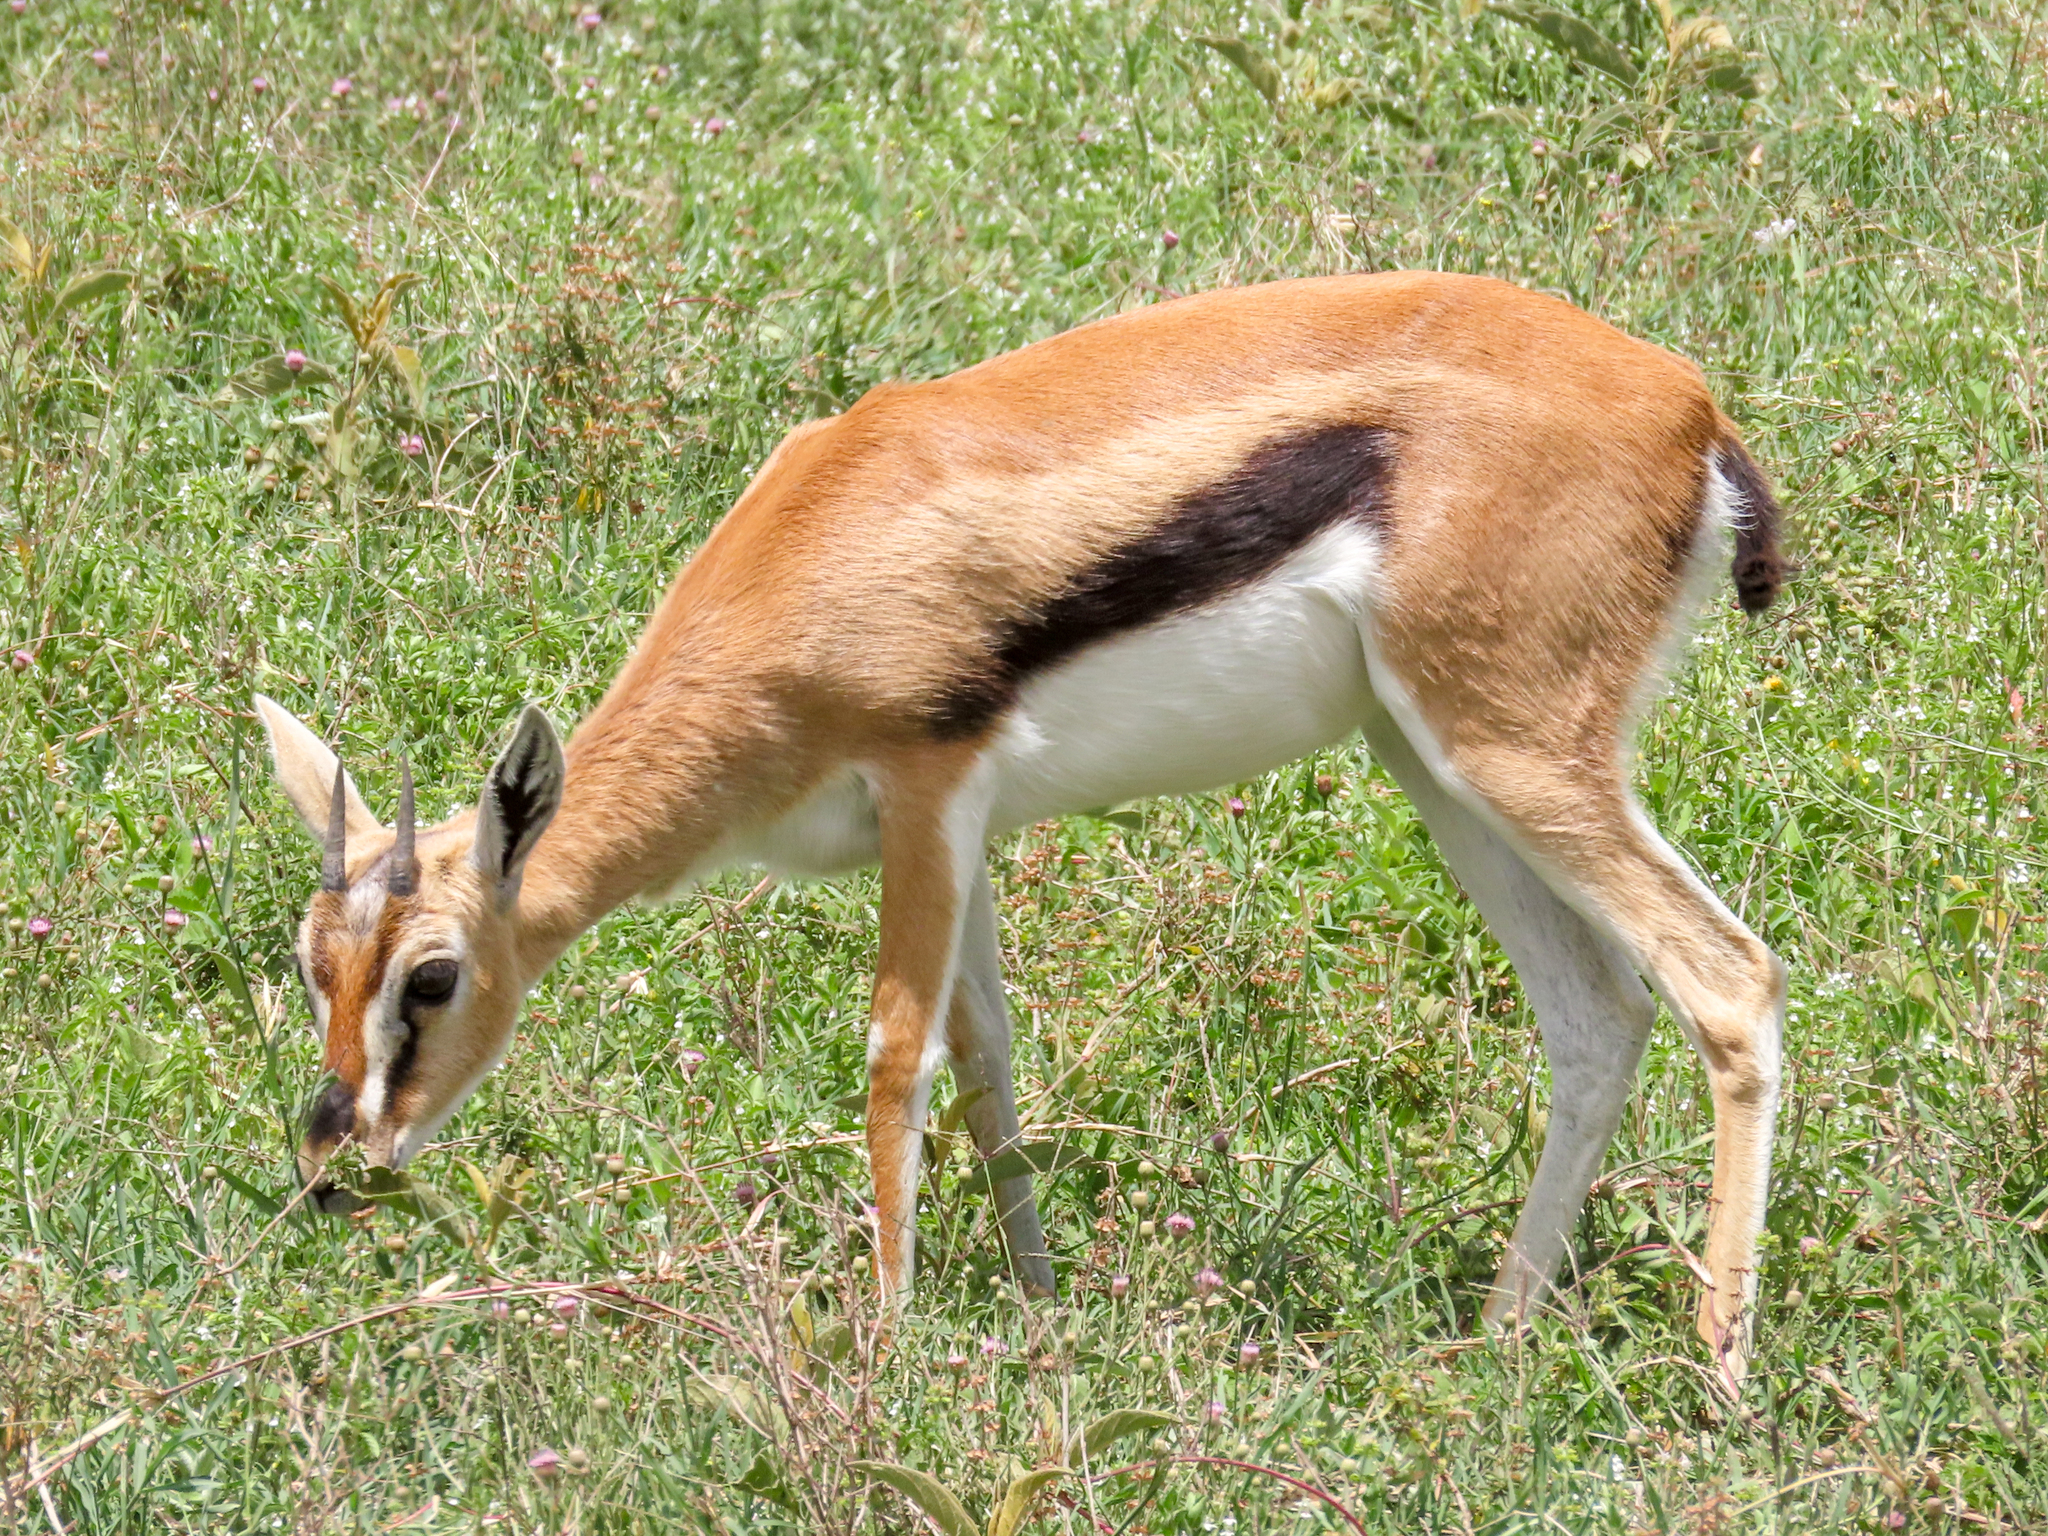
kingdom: Animalia
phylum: Chordata
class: Mammalia
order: Artiodactyla
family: Bovidae
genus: Eudorcas
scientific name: Eudorcas thomsonii
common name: Thomson's gazelle
